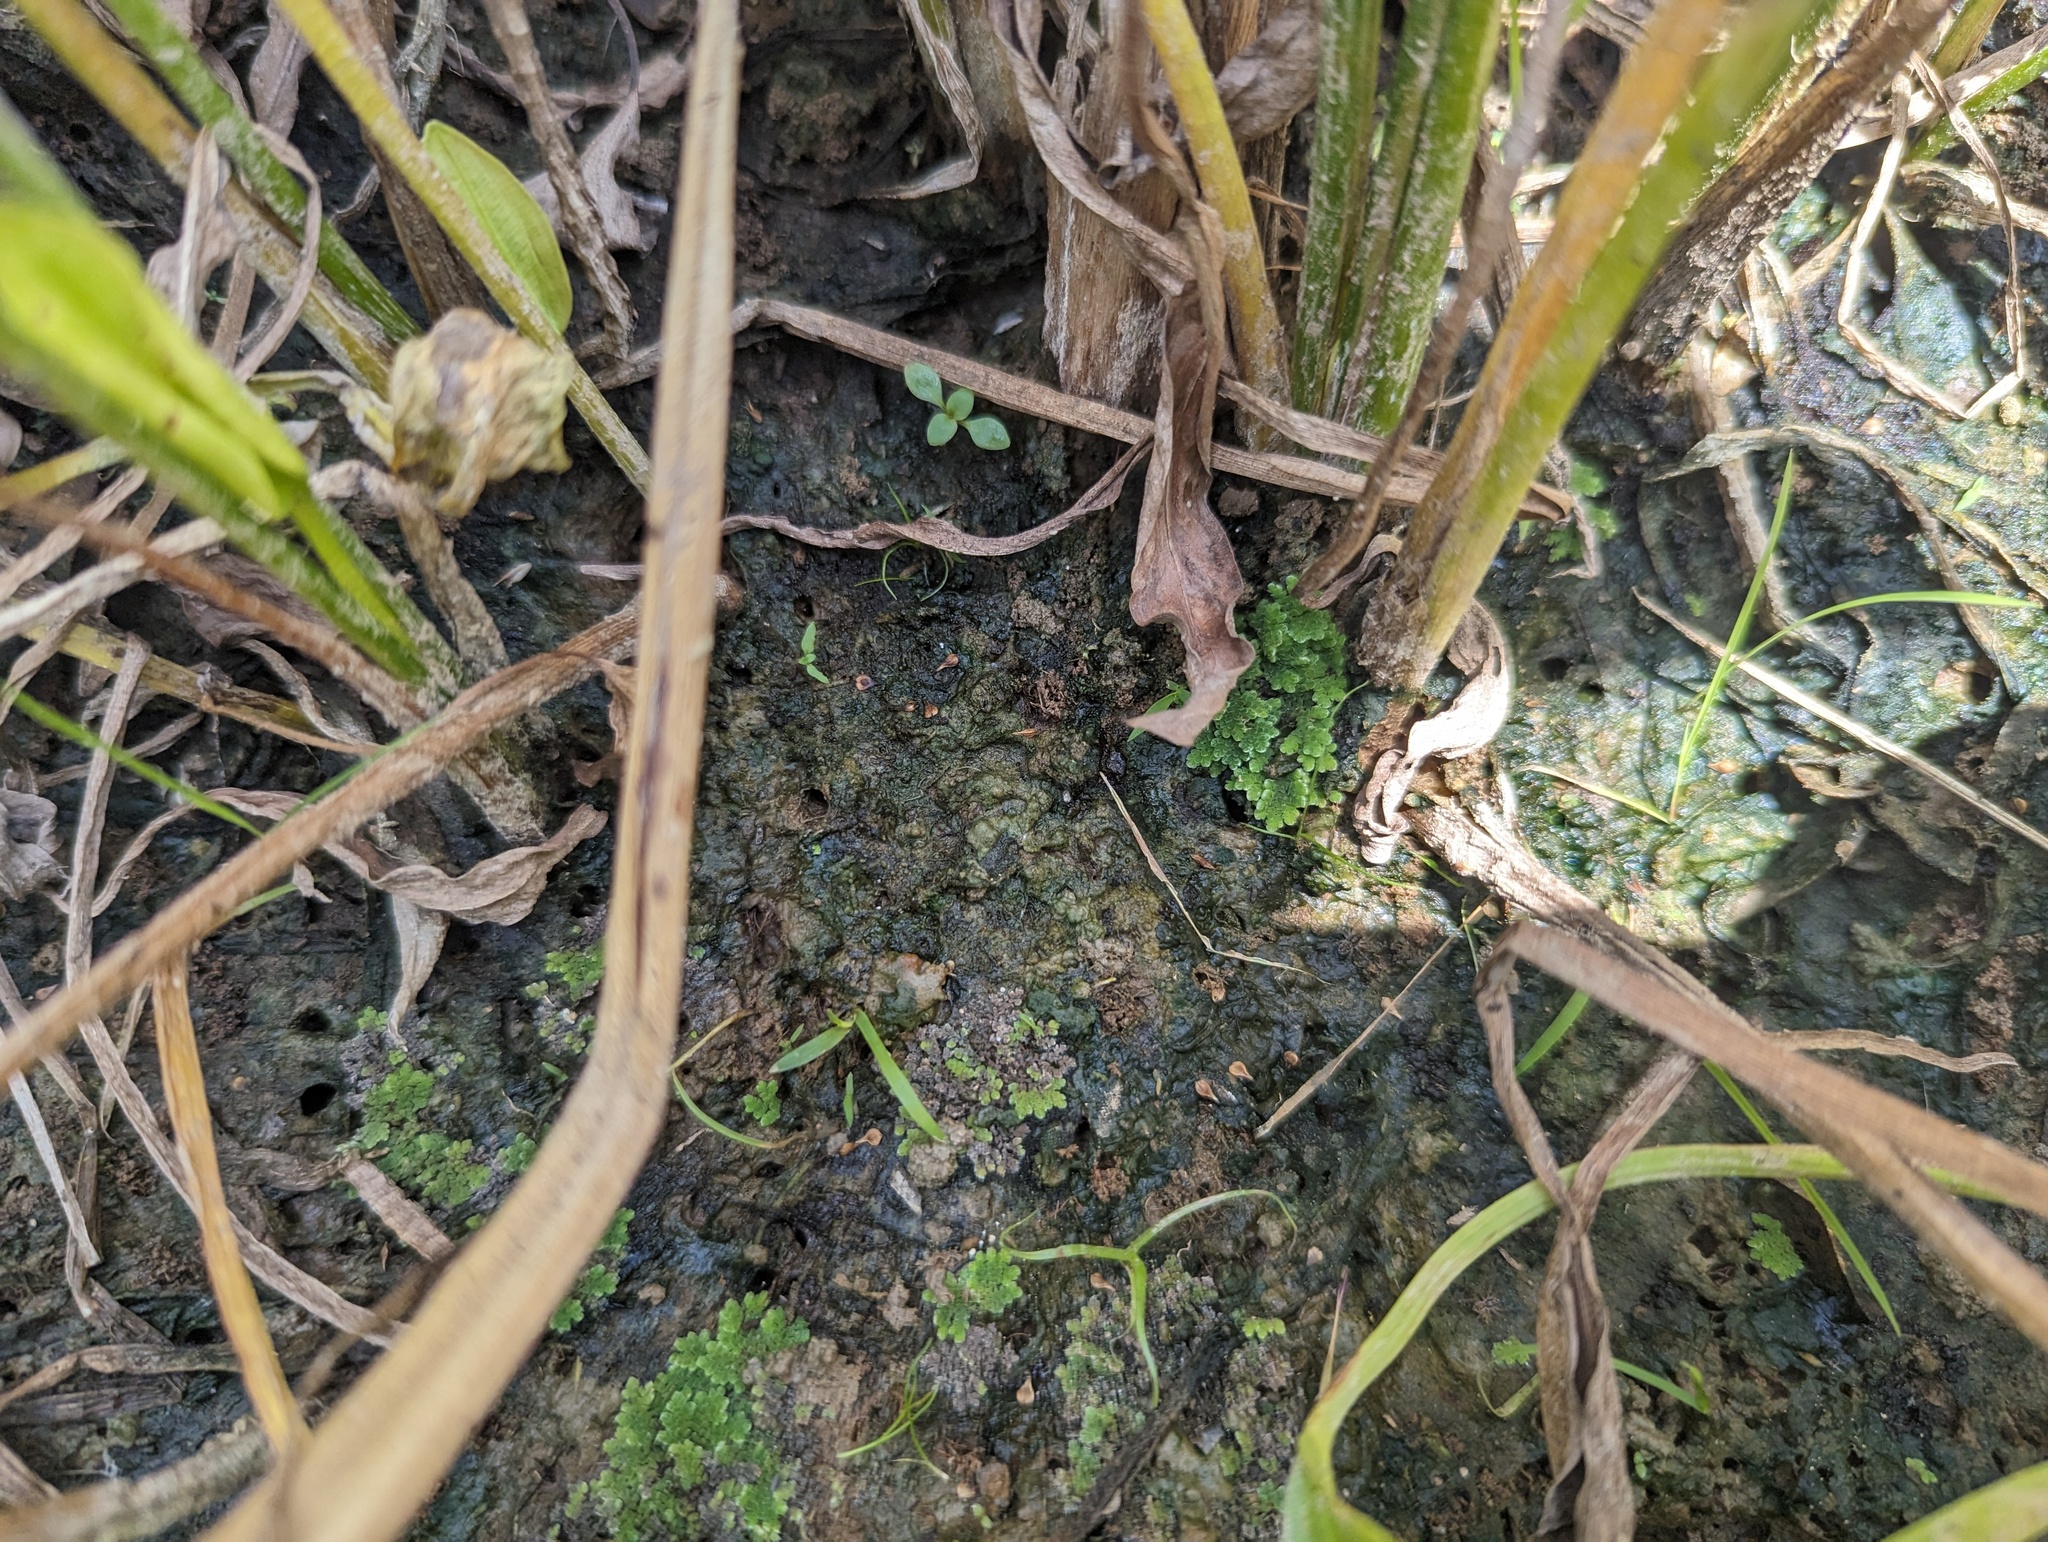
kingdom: Plantae
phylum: Tracheophyta
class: Polypodiopsida
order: Salviniales
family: Salviniaceae
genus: Azolla
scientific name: Azolla
